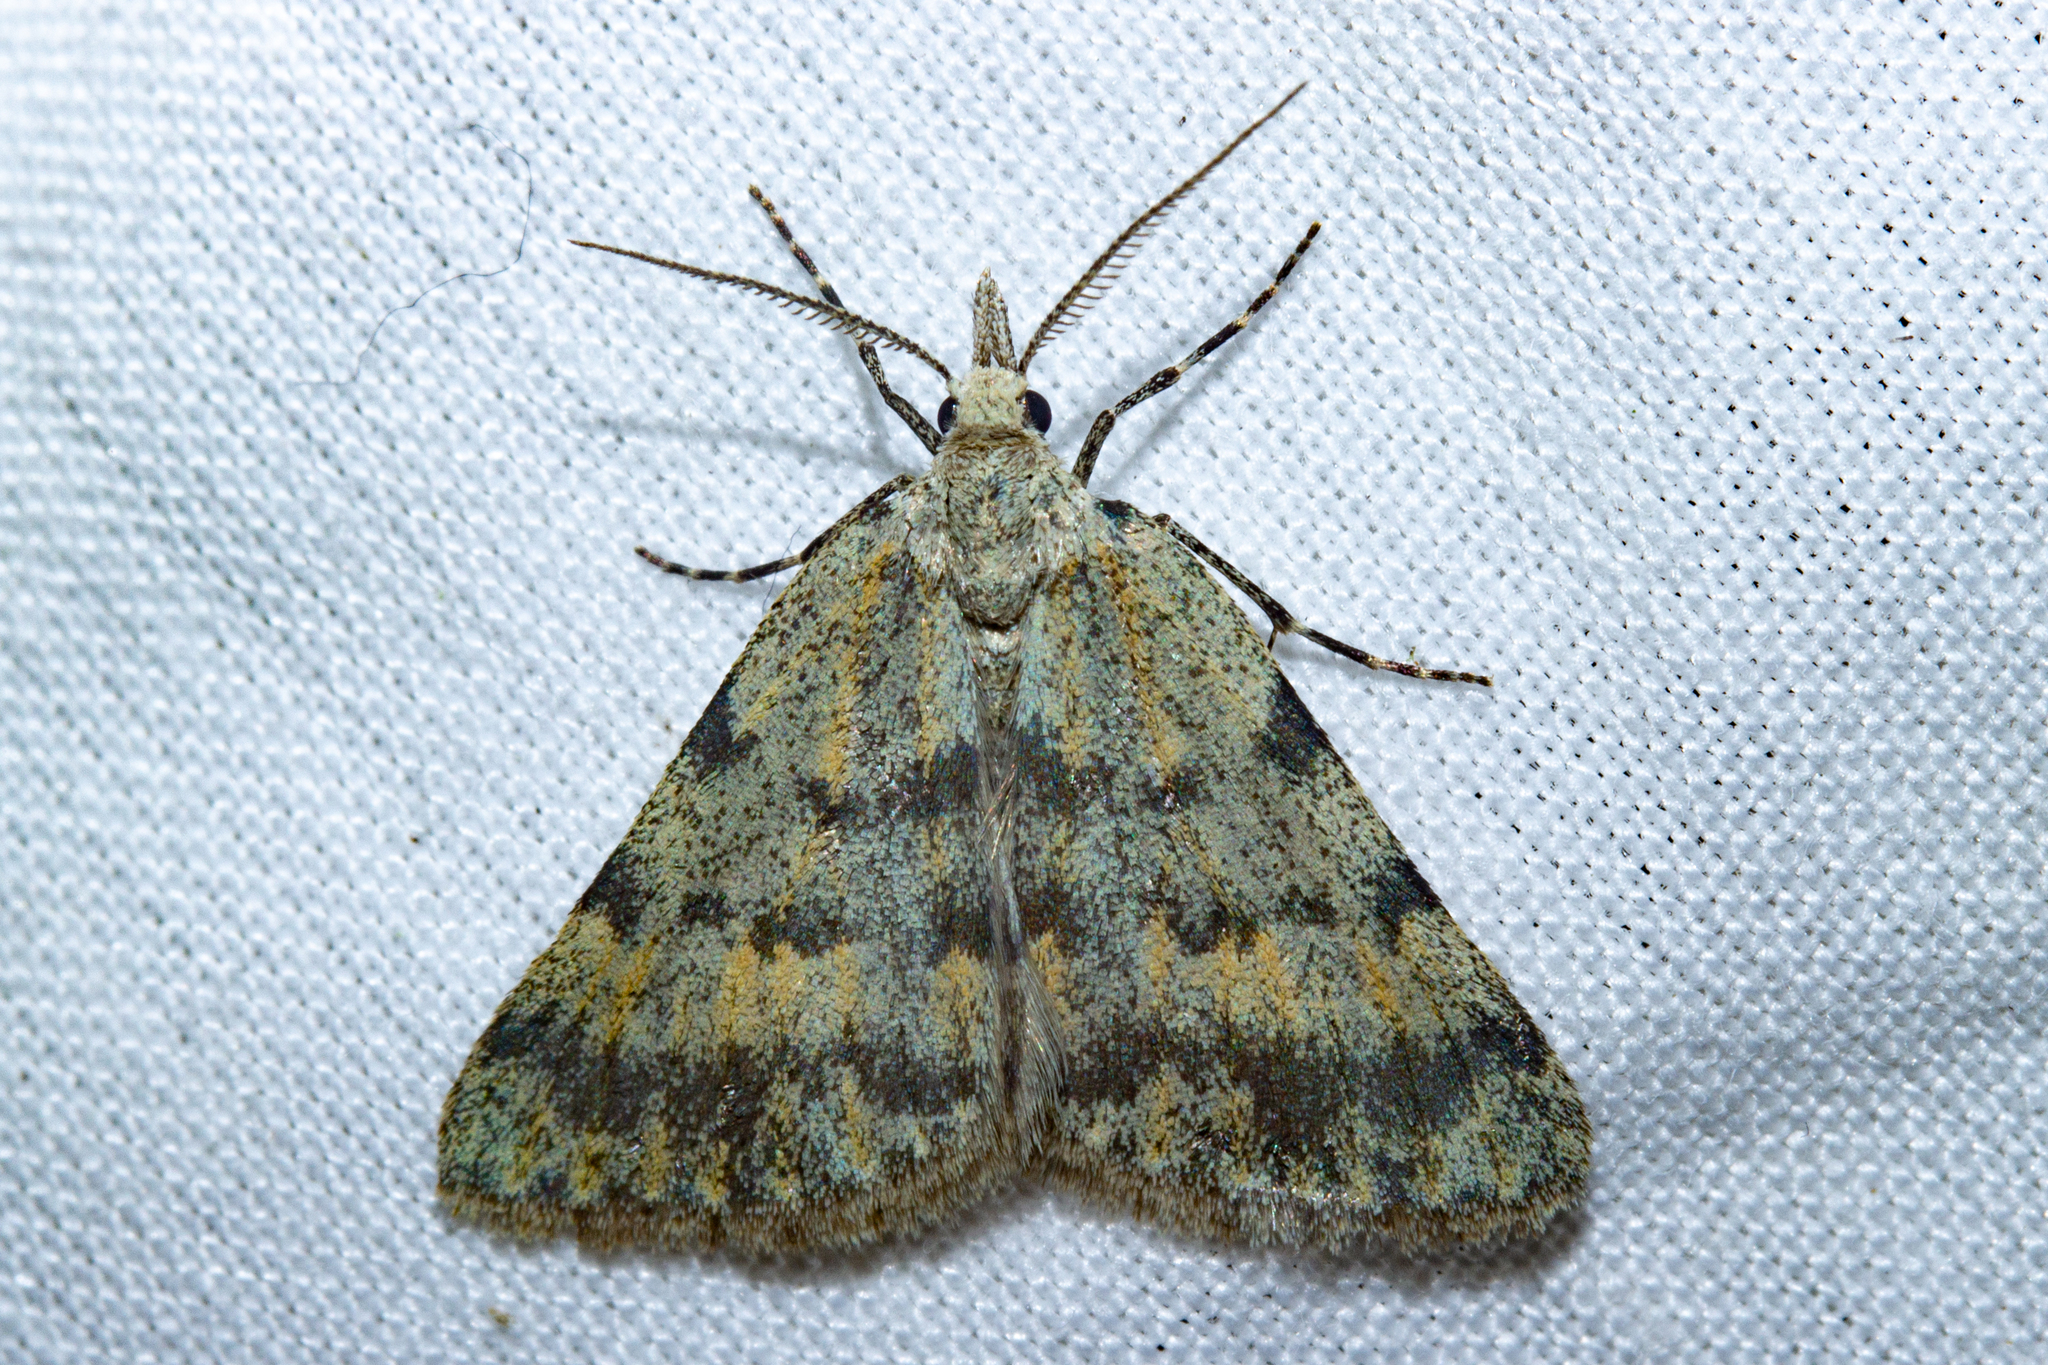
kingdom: Animalia
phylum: Arthropoda
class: Insecta
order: Lepidoptera
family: Geometridae
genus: Dichromodes
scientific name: Dichromodes sphaeriata
